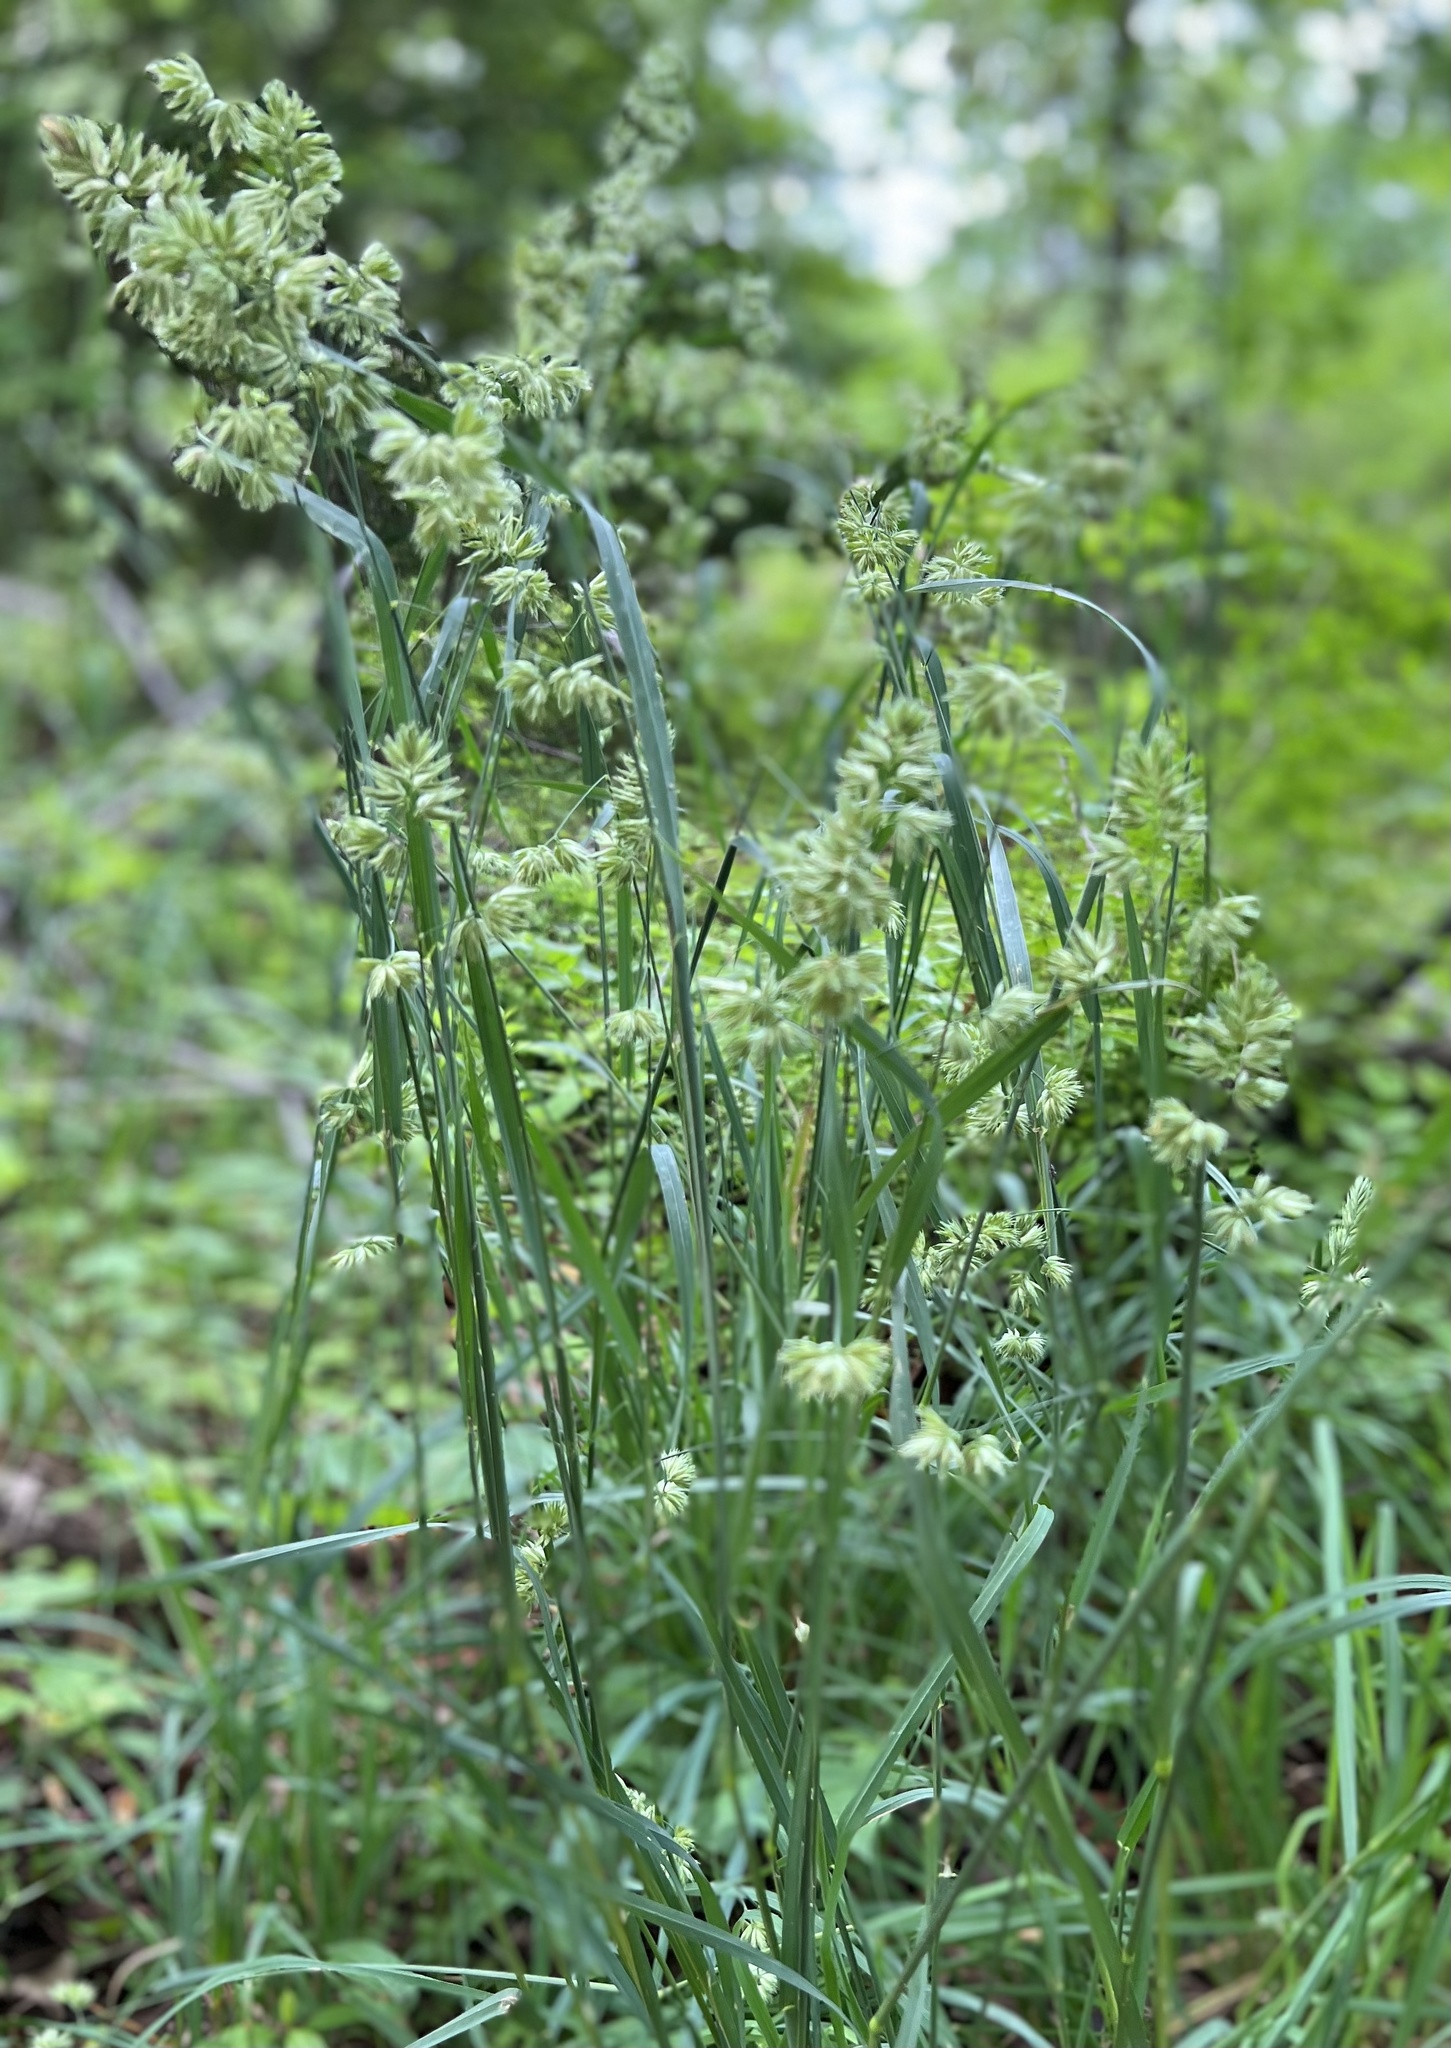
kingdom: Plantae
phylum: Tracheophyta
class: Liliopsida
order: Poales
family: Poaceae
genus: Dactylis
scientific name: Dactylis glomerata
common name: Orchardgrass
